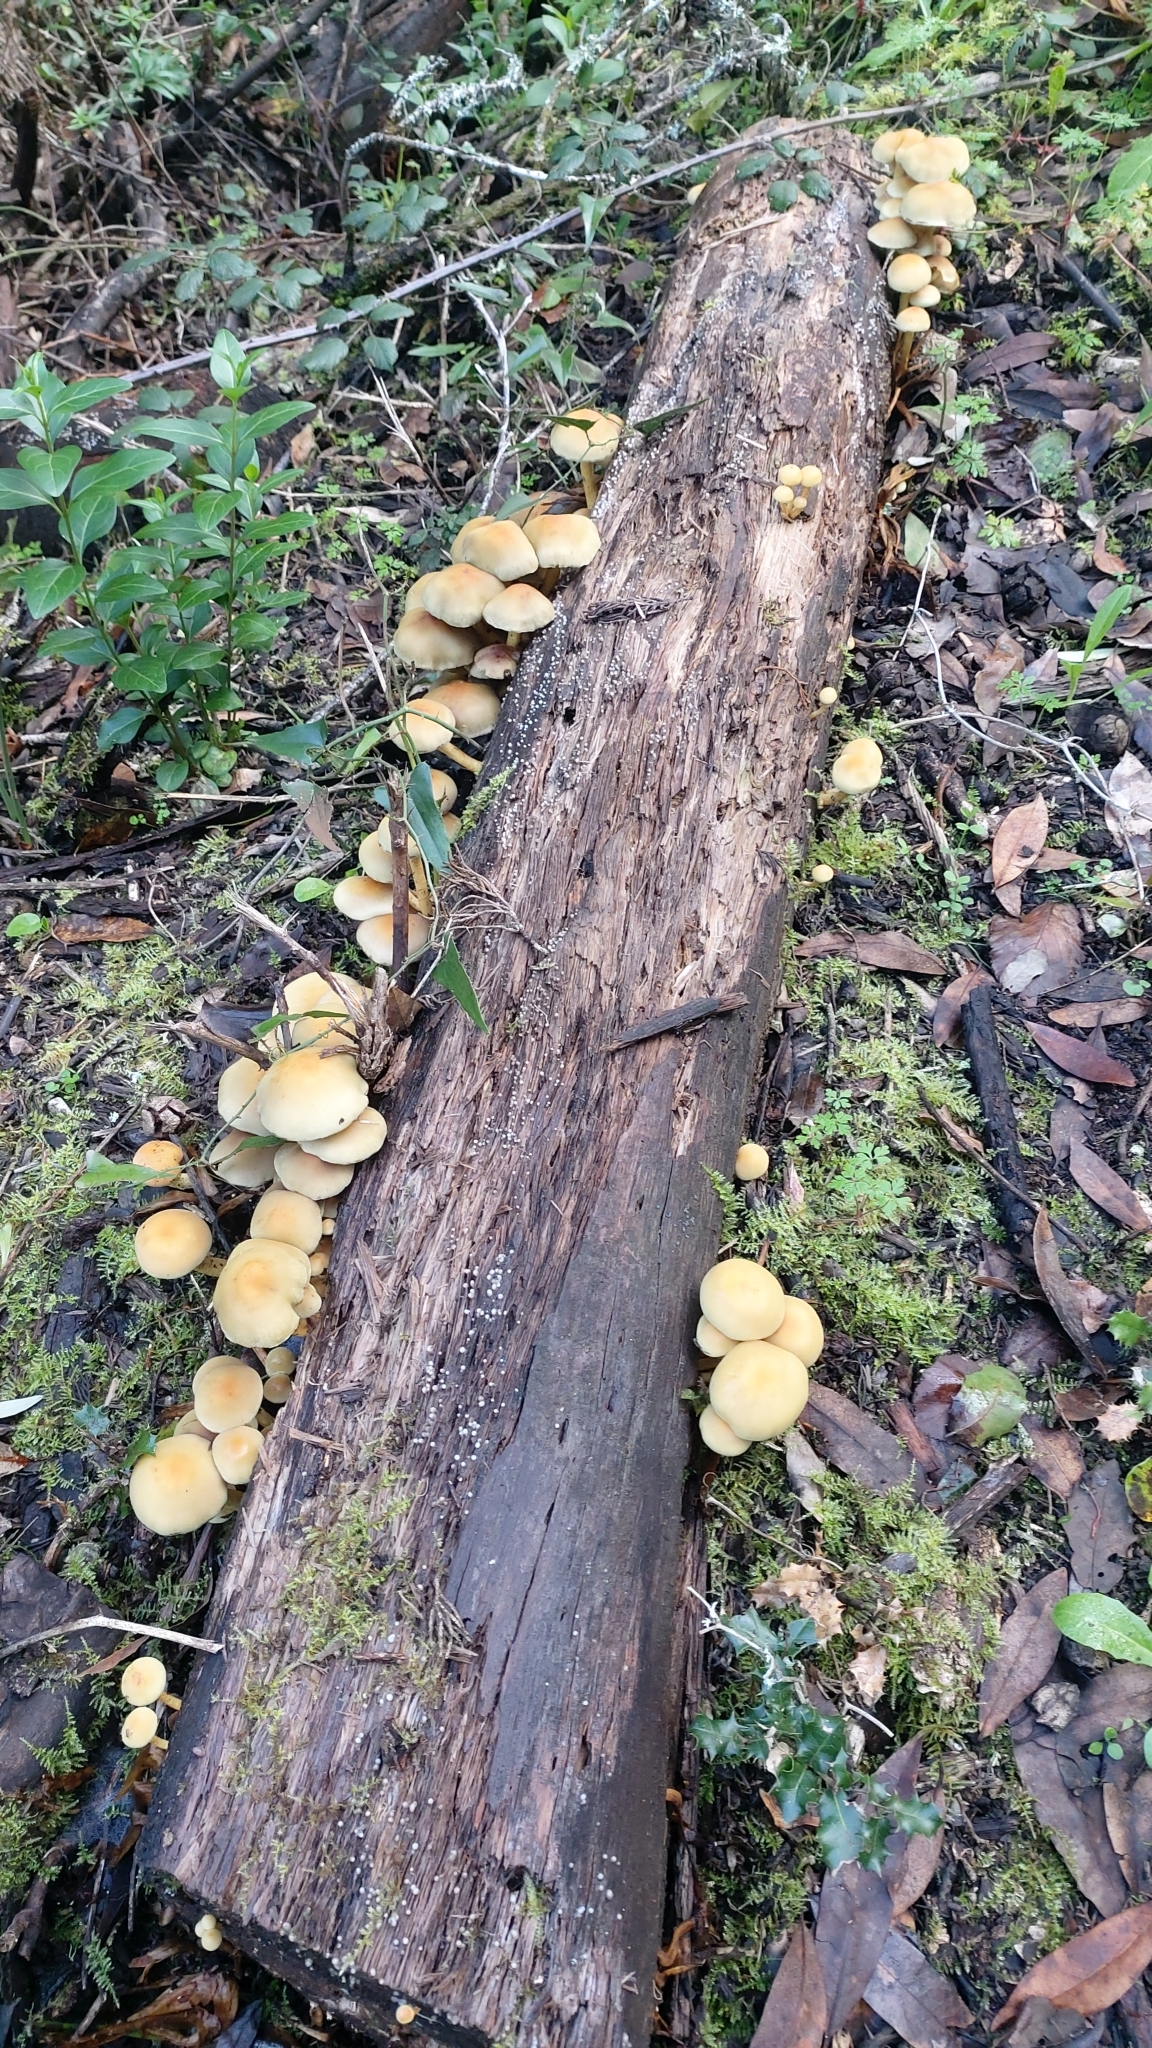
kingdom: Fungi
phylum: Basidiomycota
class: Agaricomycetes
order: Agaricales
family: Strophariaceae
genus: Hypholoma
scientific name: Hypholoma fasciculare
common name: Sulphur tuft
